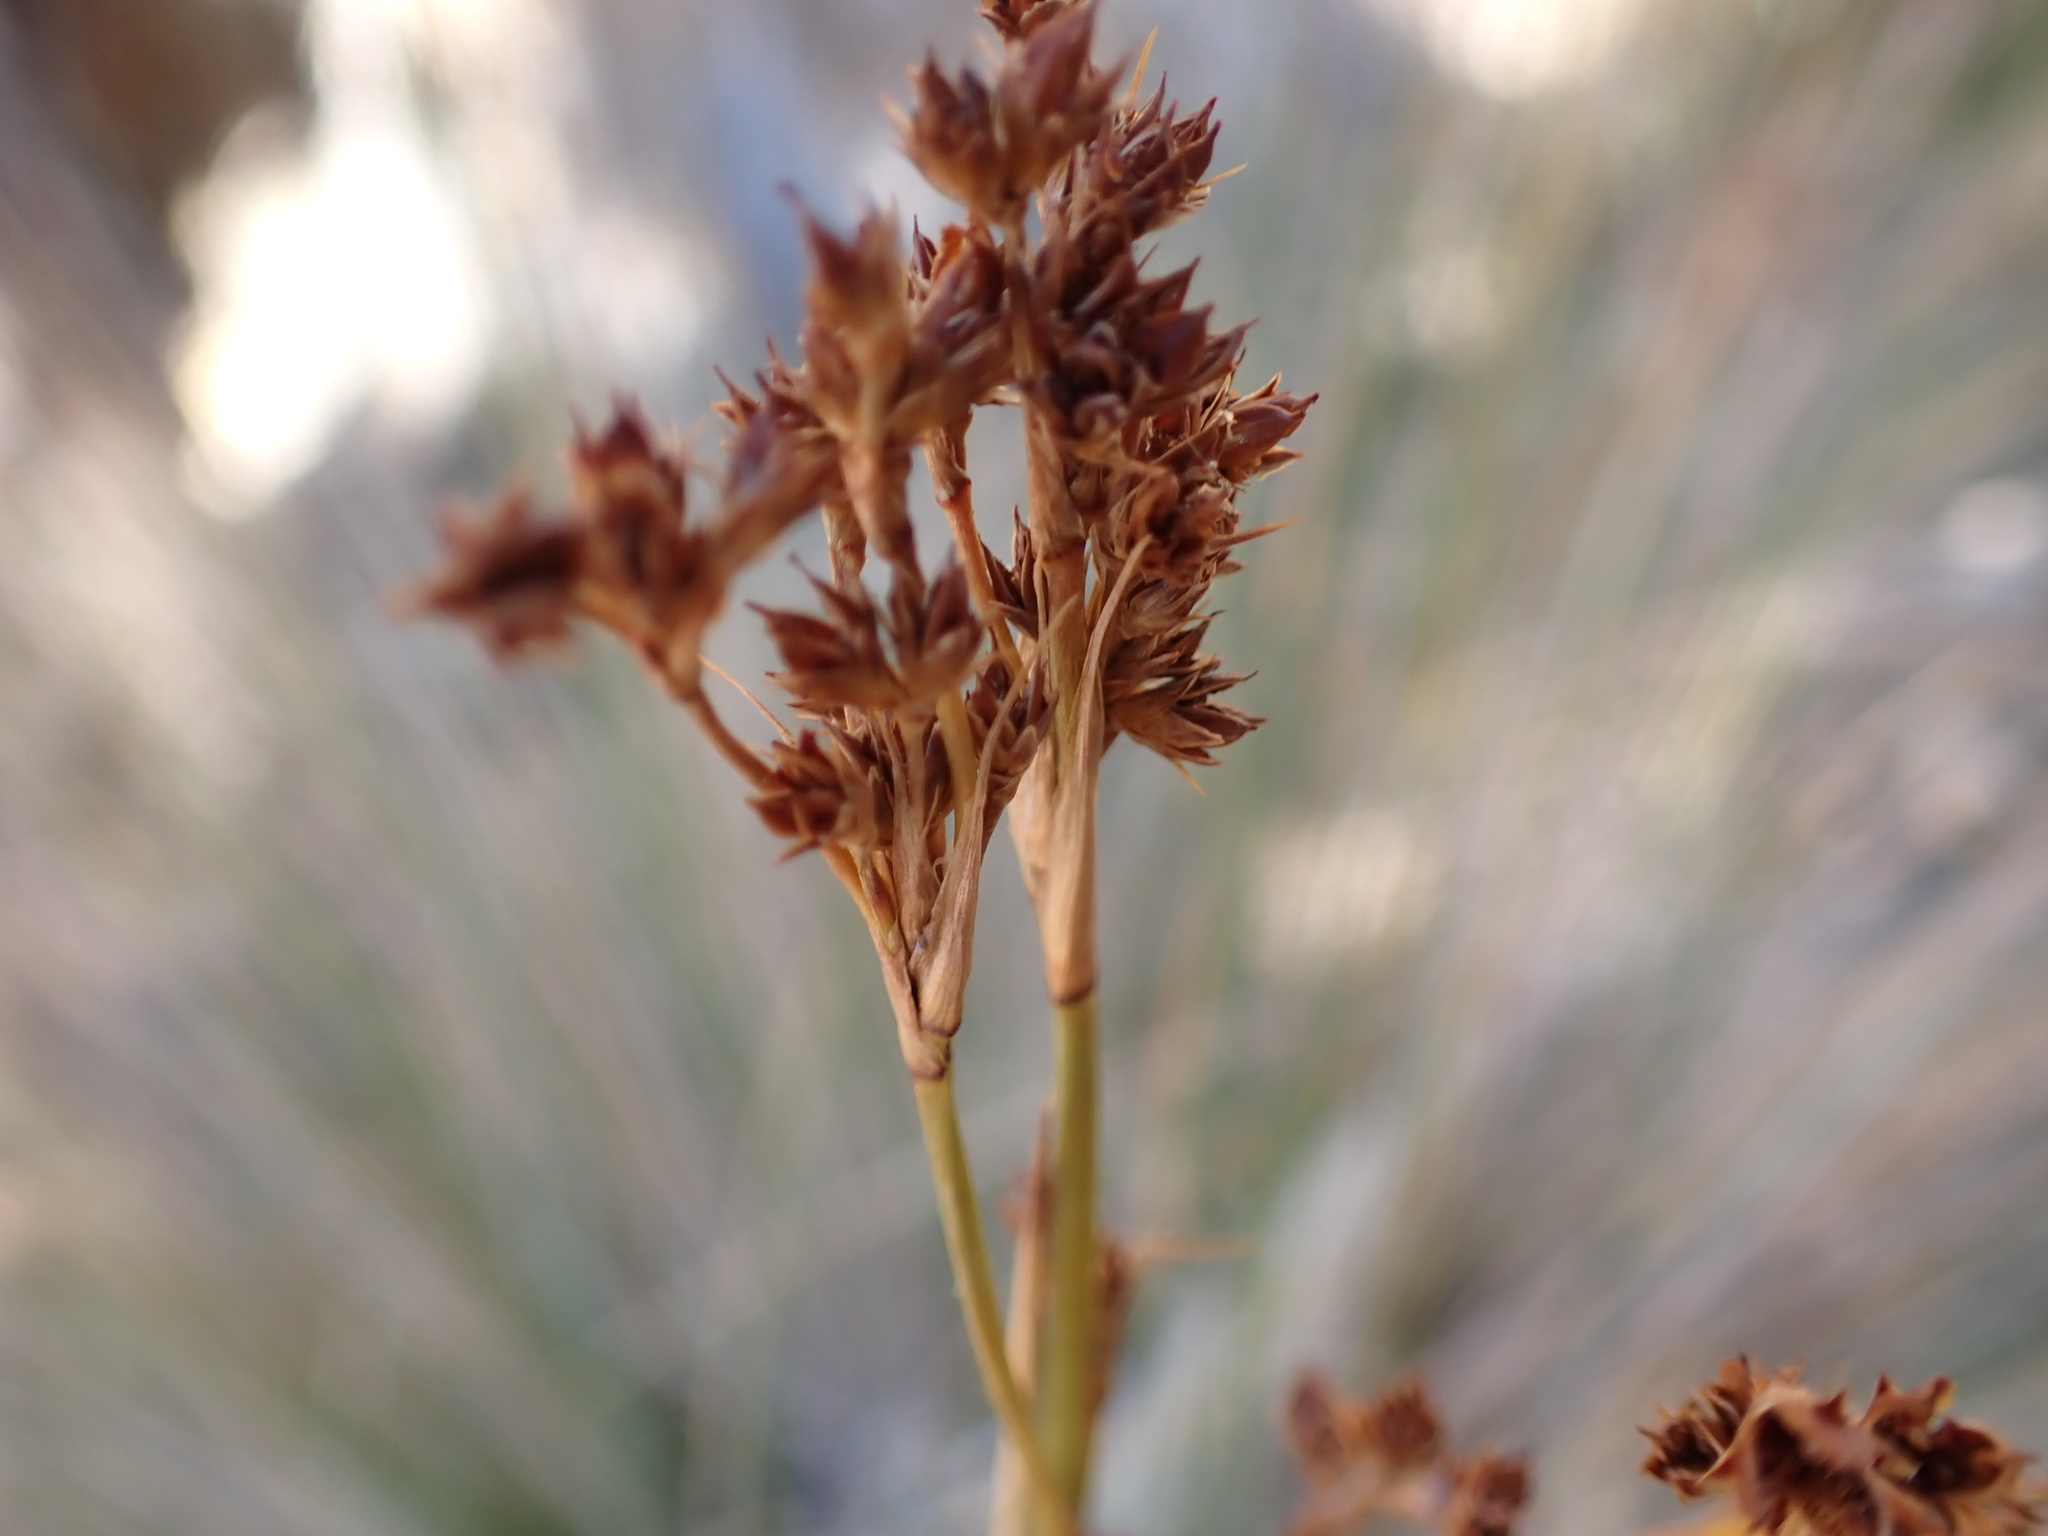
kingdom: Plantae
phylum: Tracheophyta
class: Liliopsida
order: Poales
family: Juncaceae
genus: Juncus
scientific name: Juncus acutus
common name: Sharp rush
